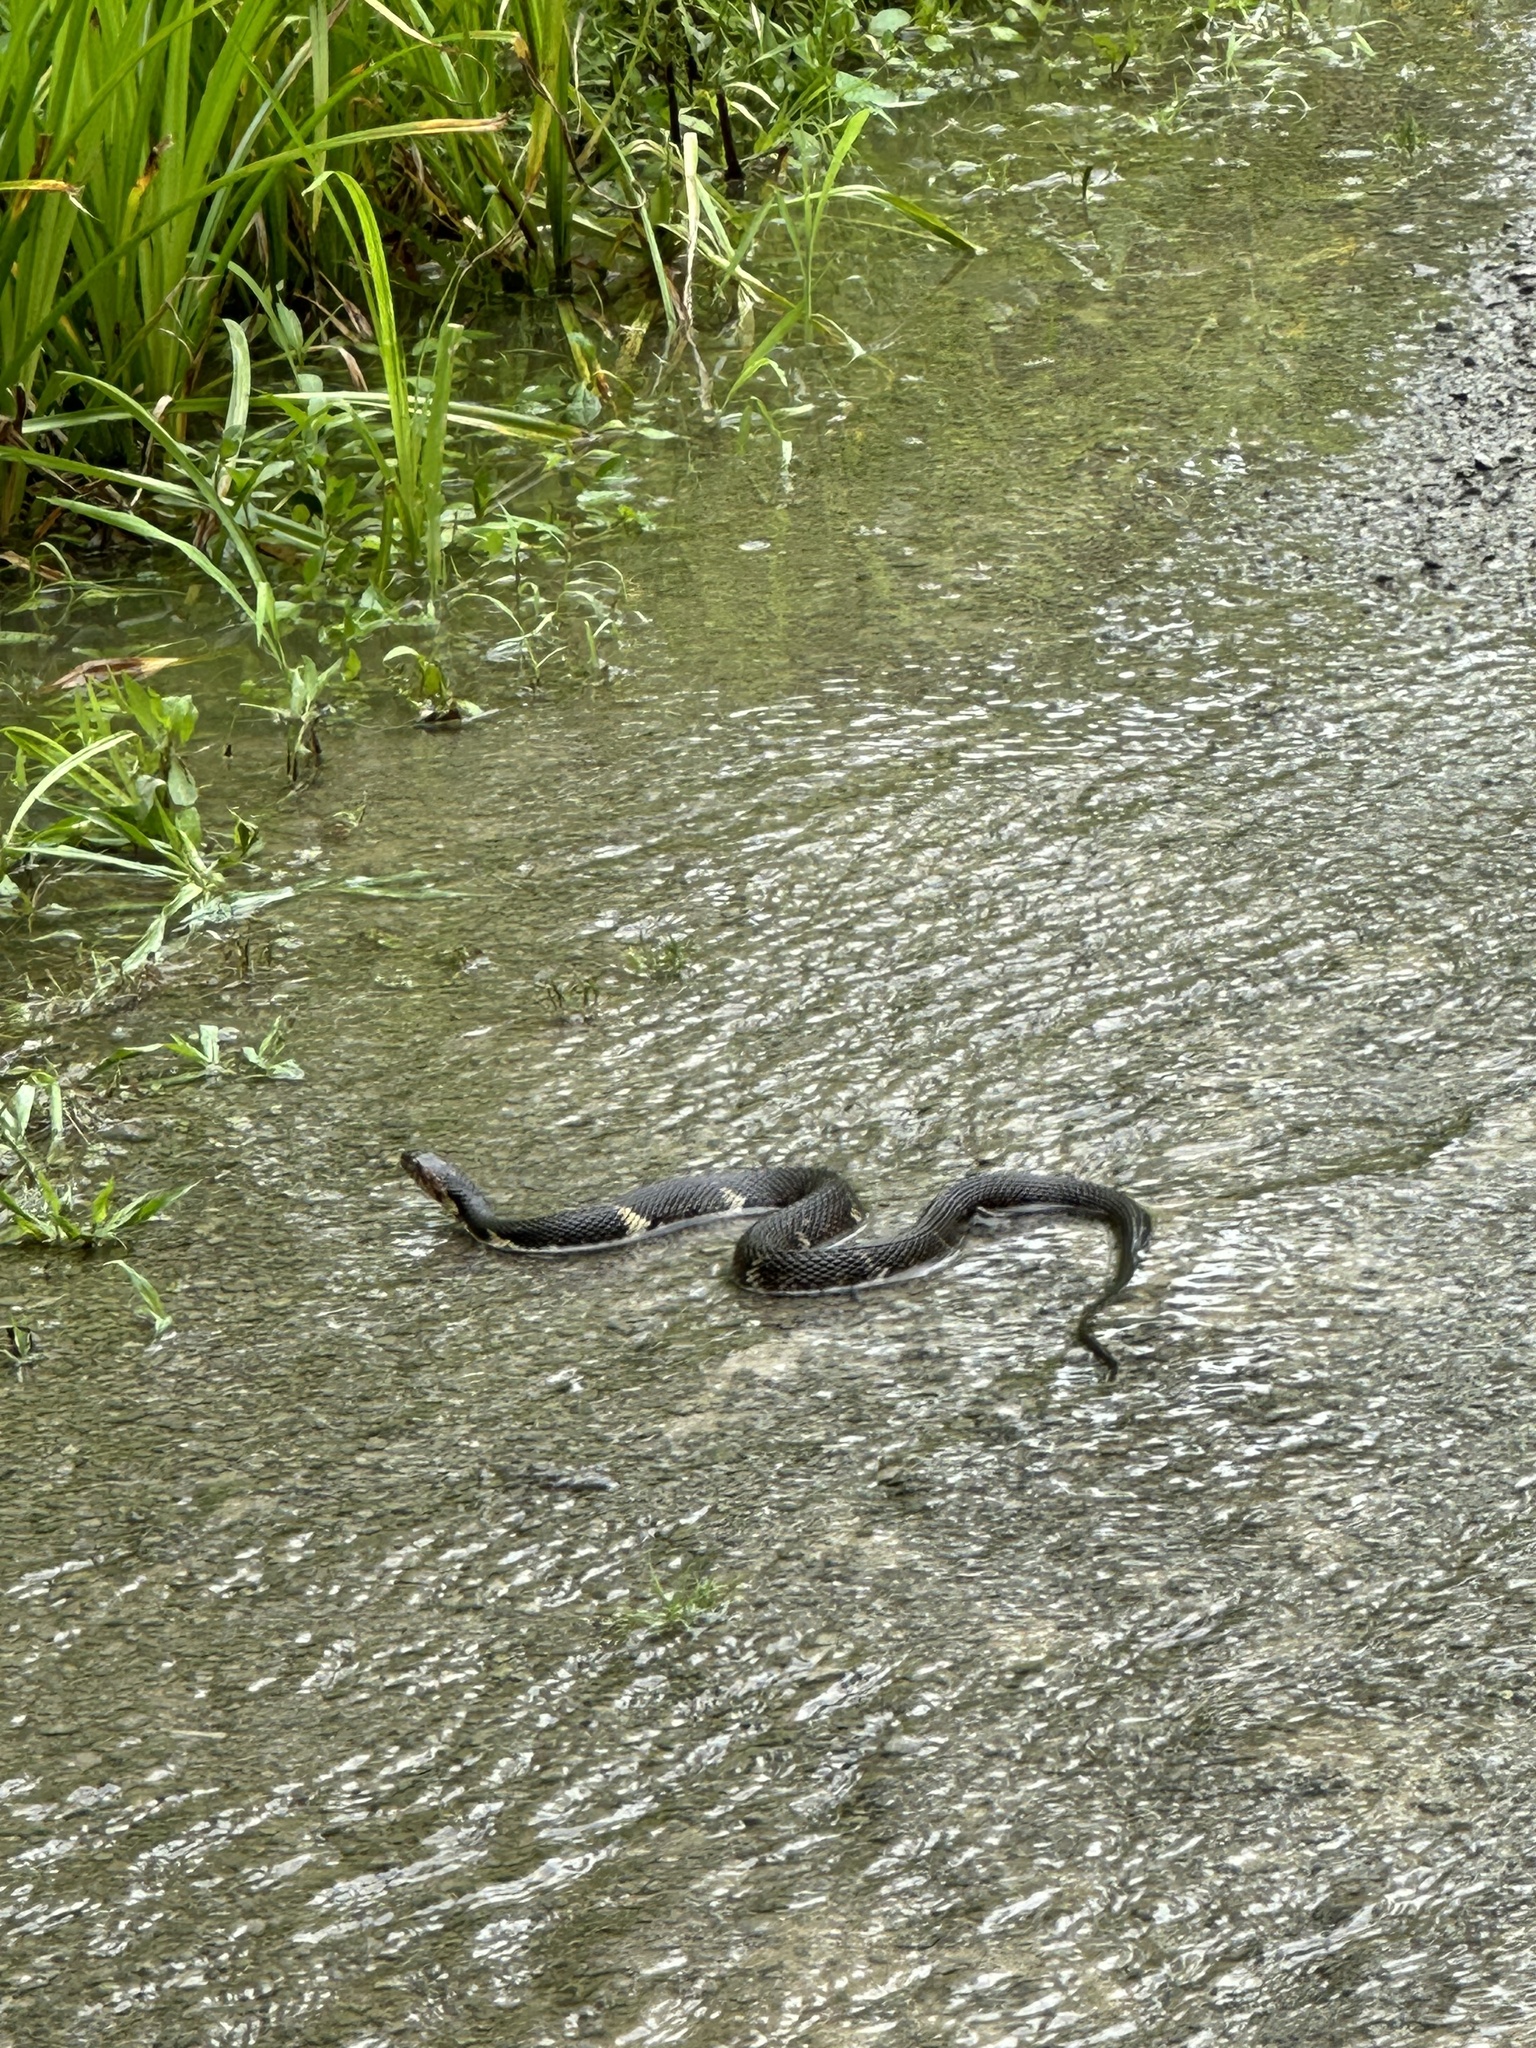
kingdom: Animalia
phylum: Chordata
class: Squamata
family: Colubridae
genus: Nerodia
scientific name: Nerodia fasciata
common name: Southern water snake
